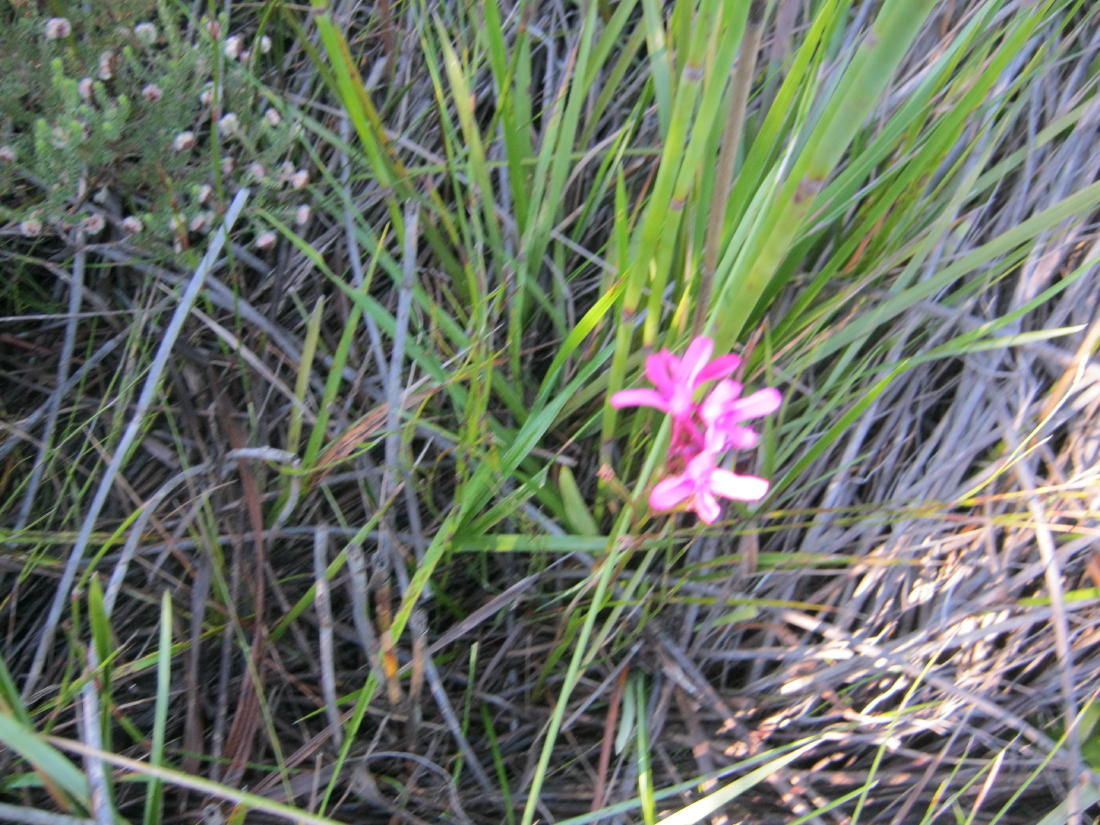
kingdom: Plantae
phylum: Tracheophyta
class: Liliopsida
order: Asparagales
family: Orchidaceae
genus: Disa
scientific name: Disa gladioliflora
